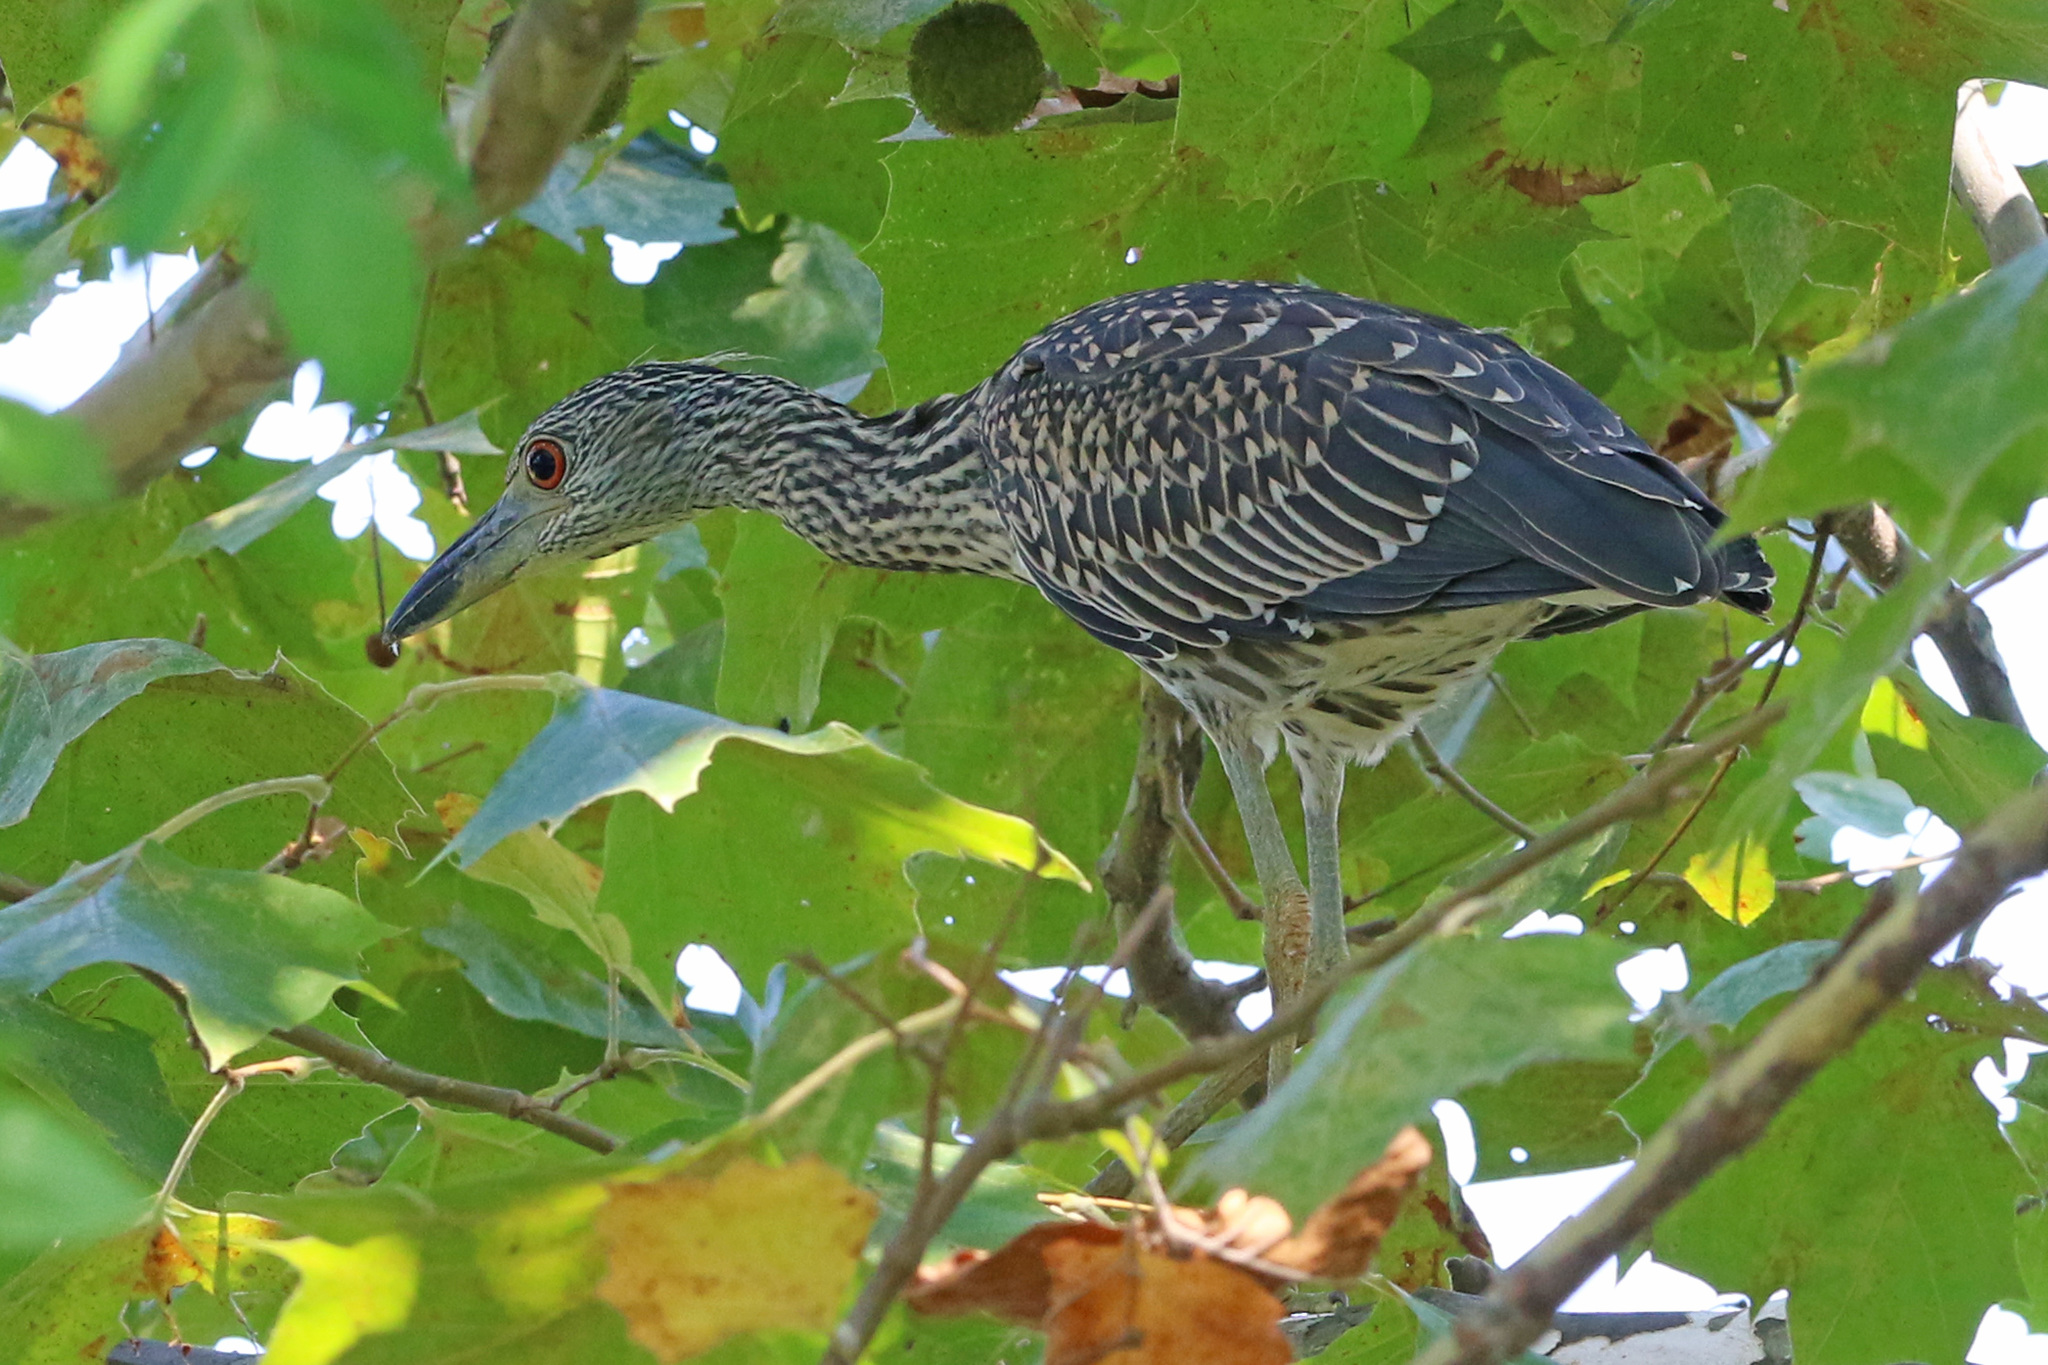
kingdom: Animalia
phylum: Chordata
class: Aves
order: Pelecaniformes
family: Ardeidae
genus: Nyctanassa
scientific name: Nyctanassa violacea
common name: Yellow-crowned night heron
